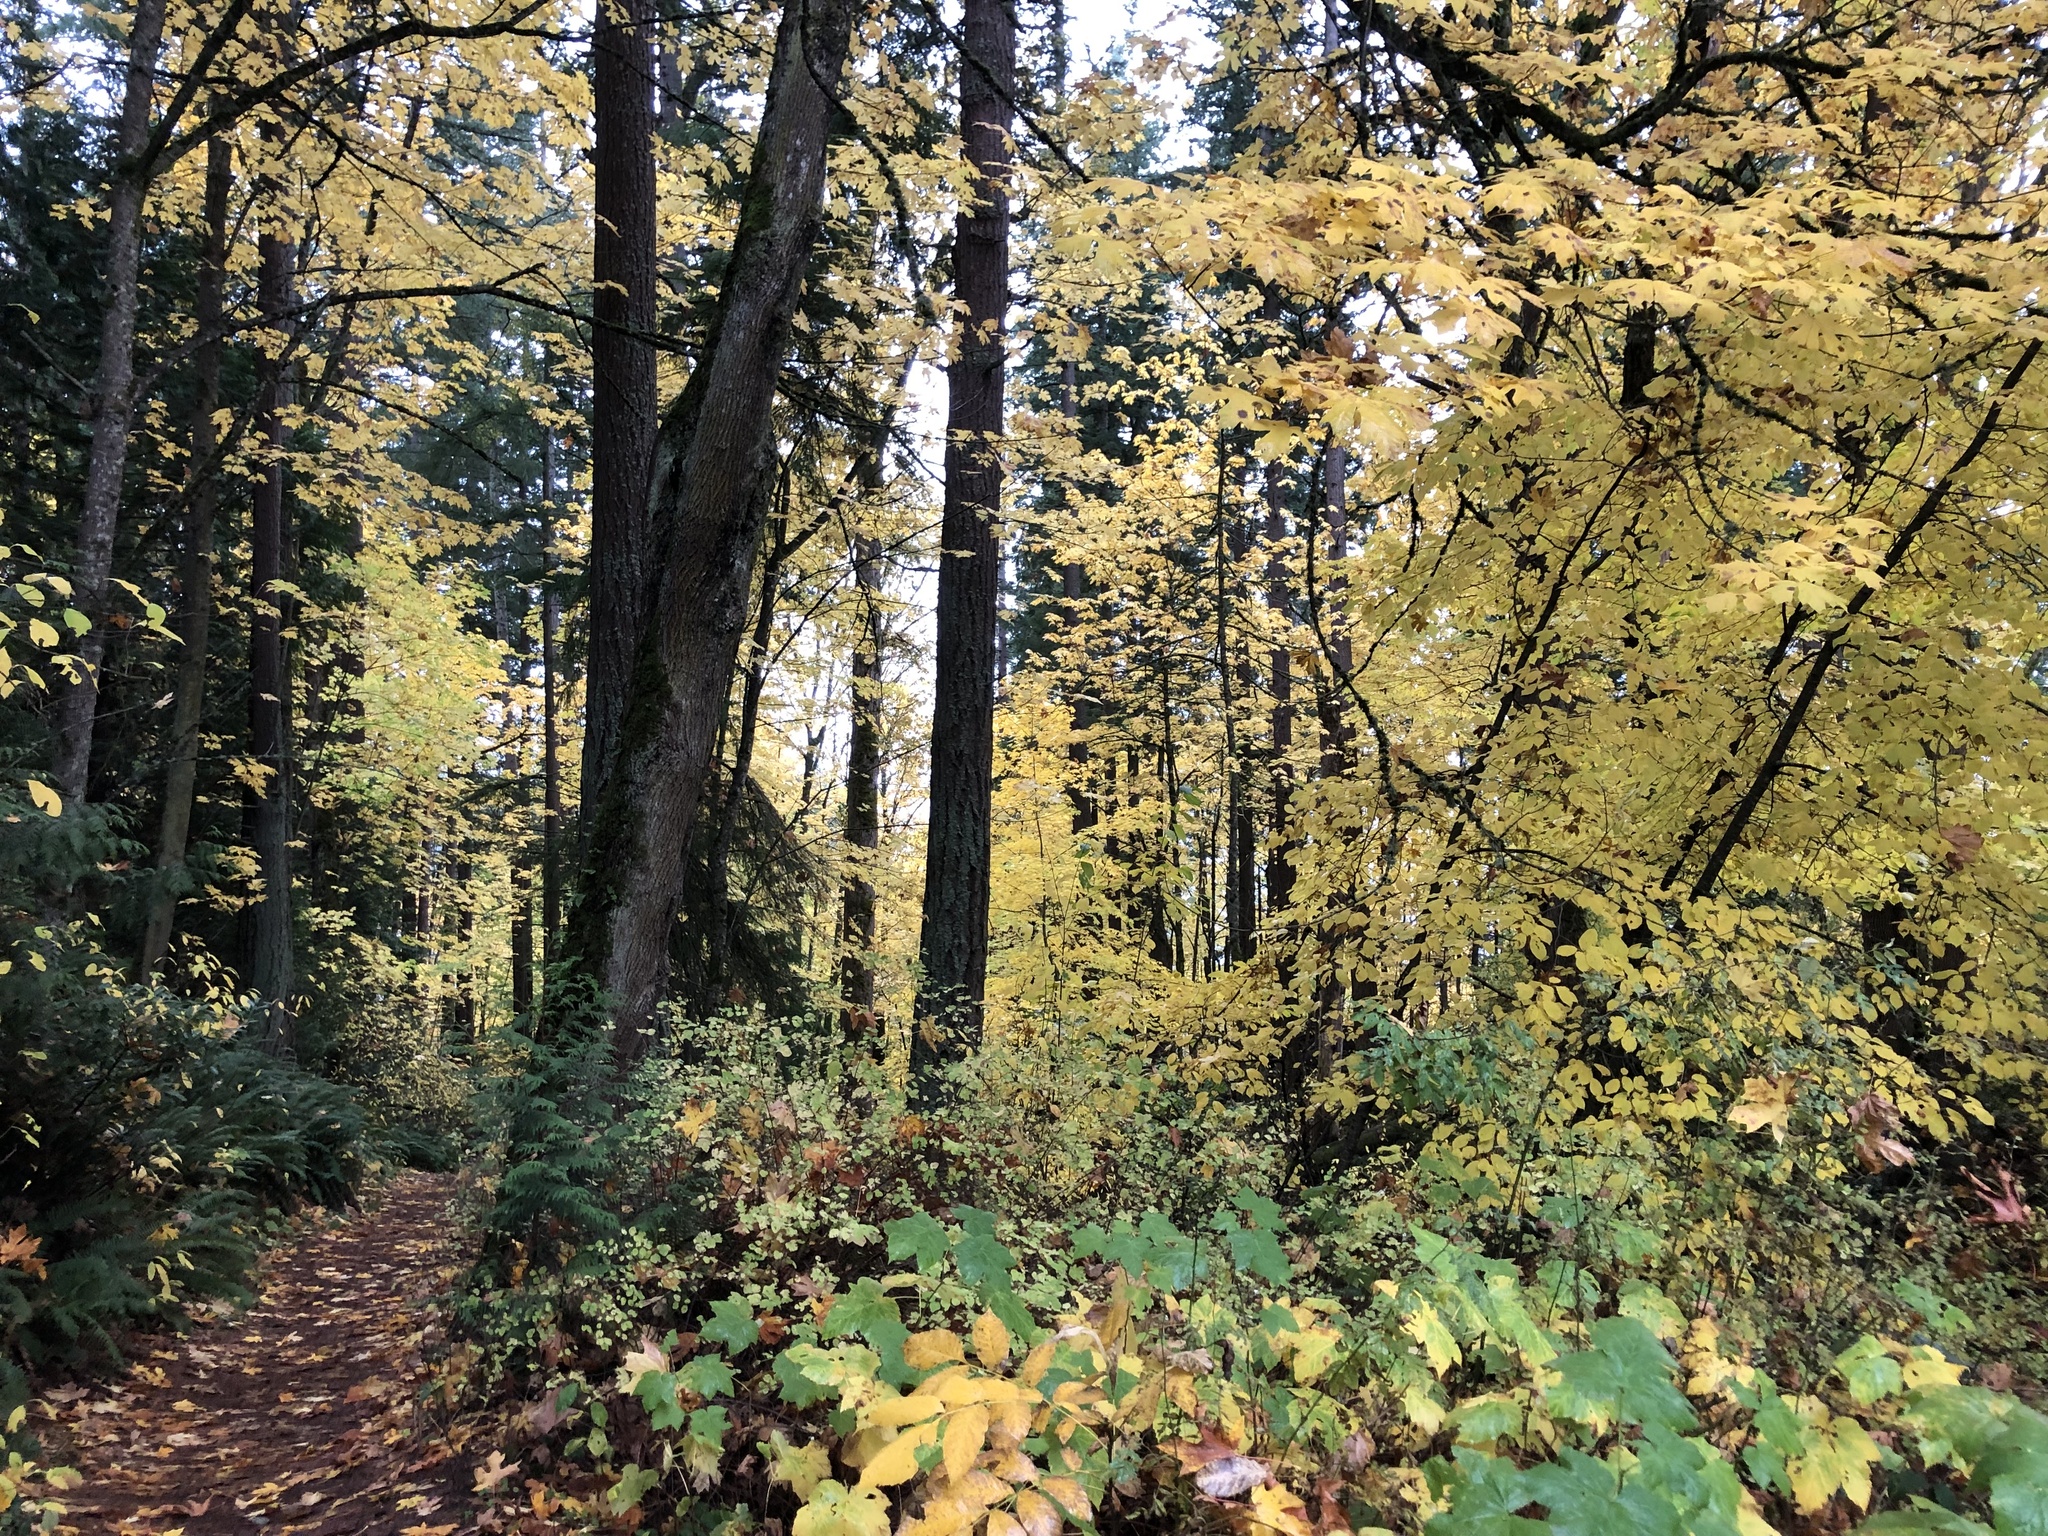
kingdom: Plantae
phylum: Tracheophyta
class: Magnoliopsida
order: Sapindales
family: Sapindaceae
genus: Acer
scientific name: Acer macrophyllum
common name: Oregon maple
